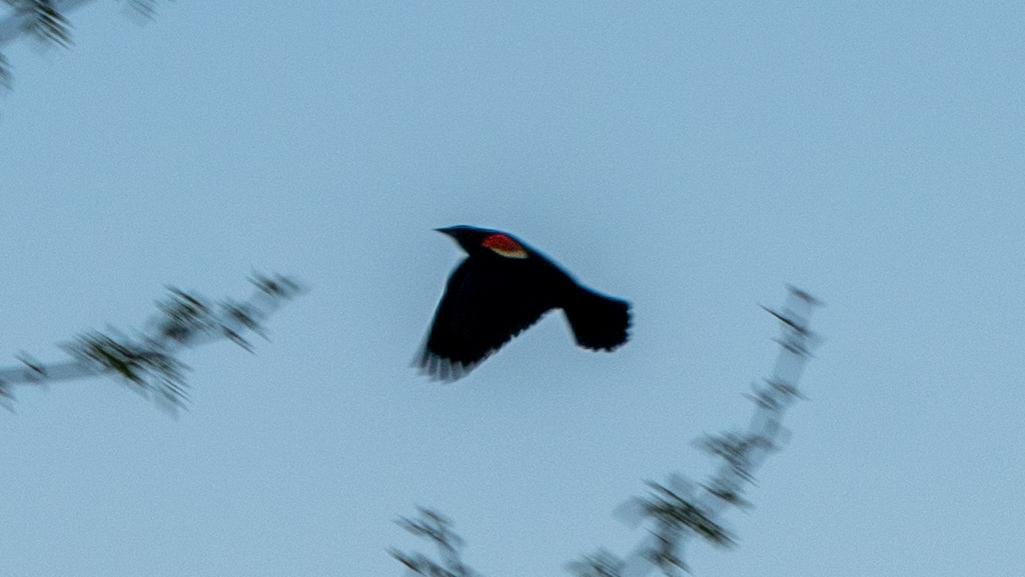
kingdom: Animalia
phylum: Chordata
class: Aves
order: Passeriformes
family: Icteridae
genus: Agelaius
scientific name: Agelaius phoeniceus
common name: Red-winged blackbird
